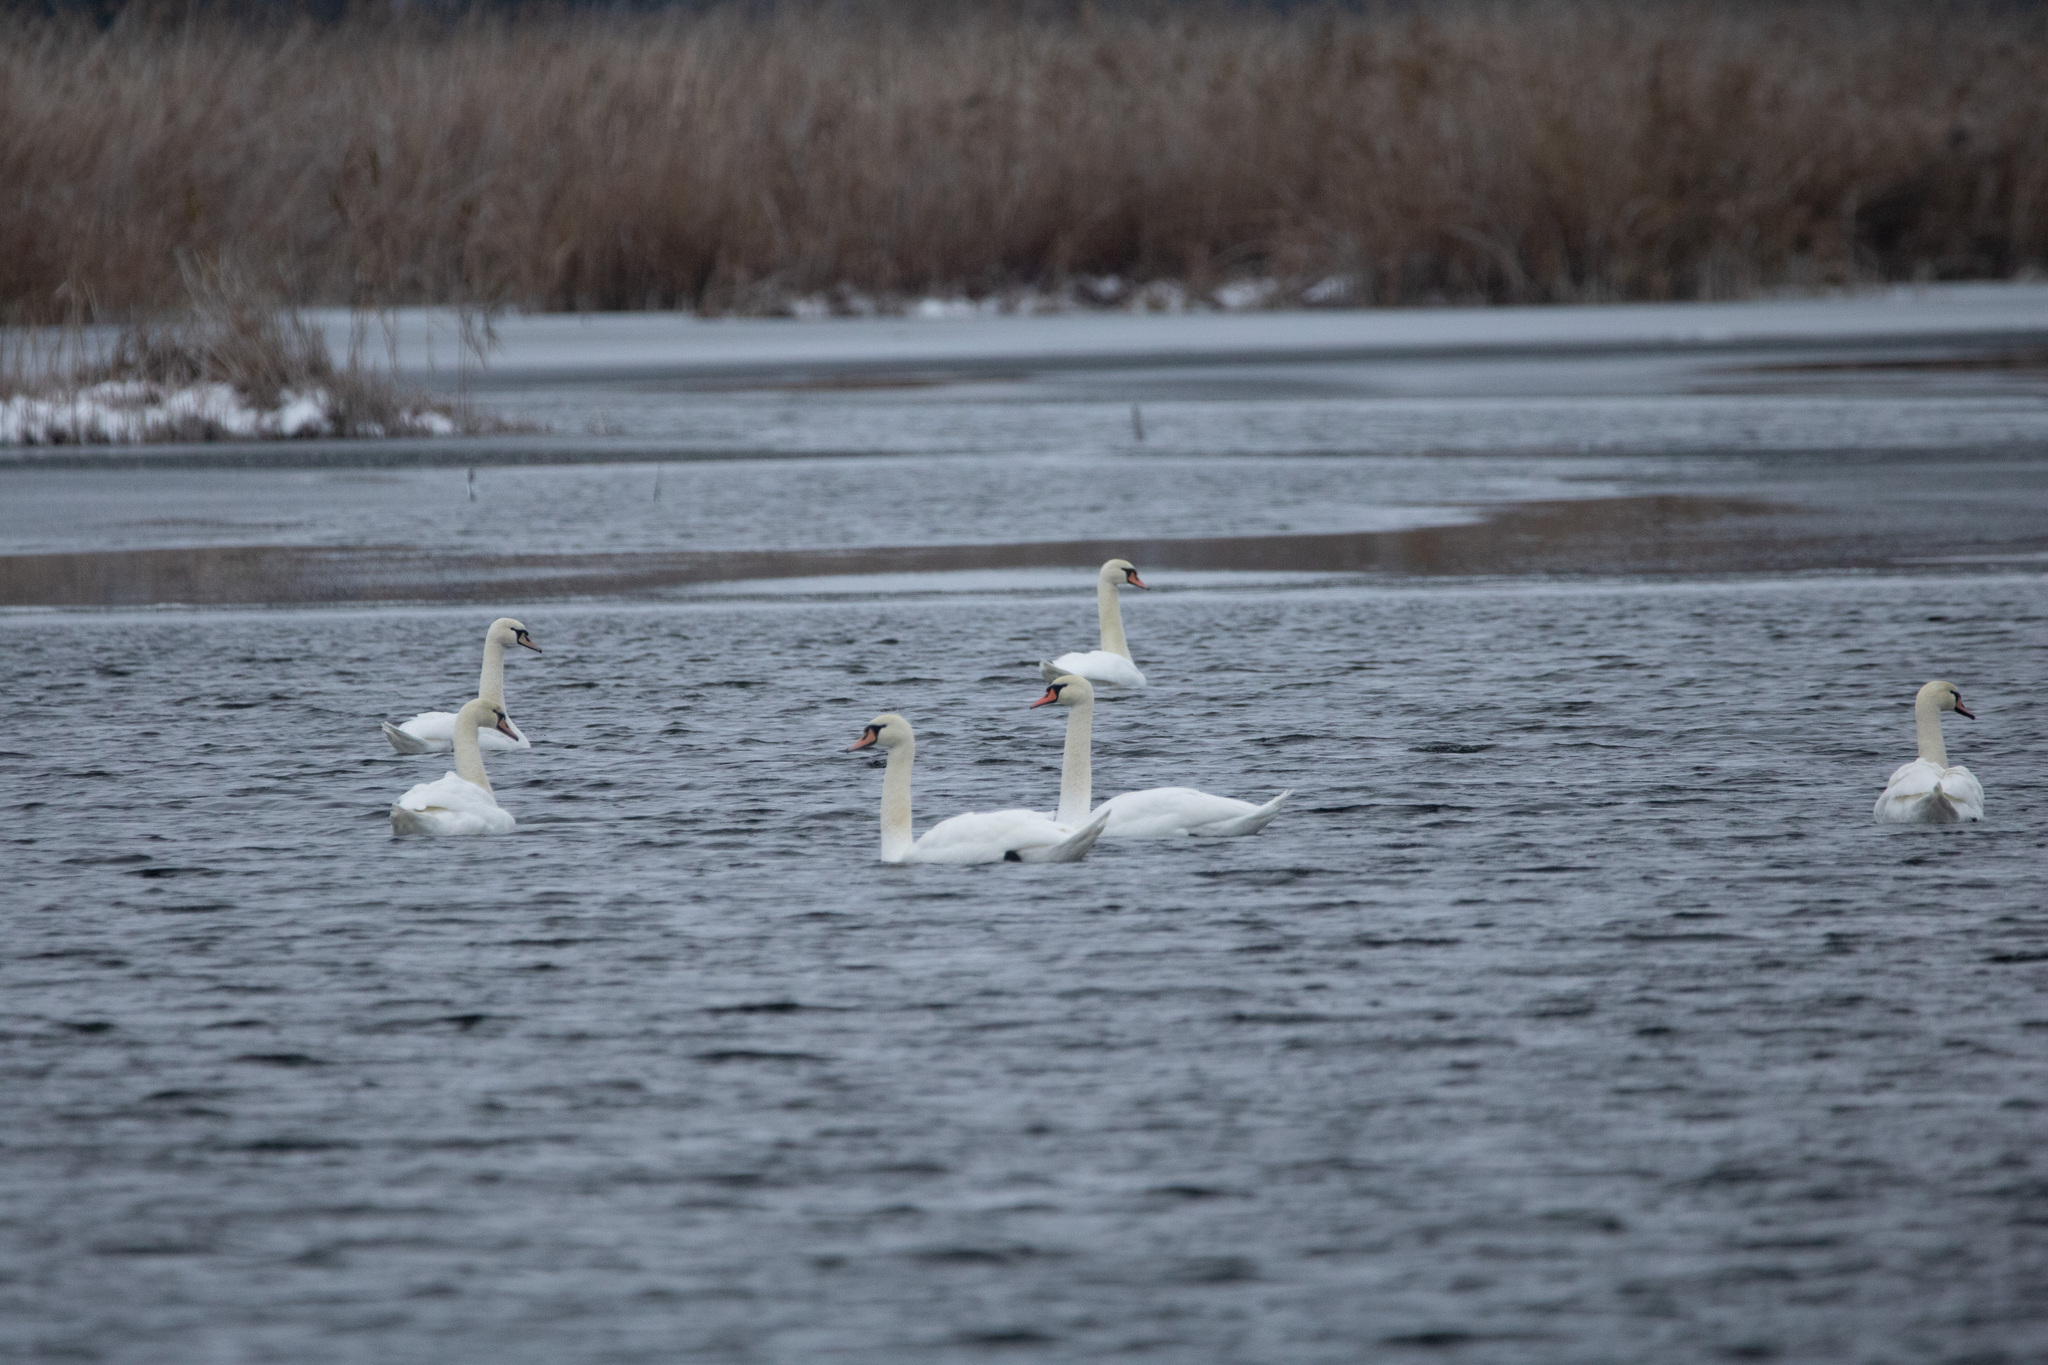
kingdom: Animalia
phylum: Chordata
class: Aves
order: Anseriformes
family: Anatidae
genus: Cygnus
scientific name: Cygnus olor
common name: Mute swan
